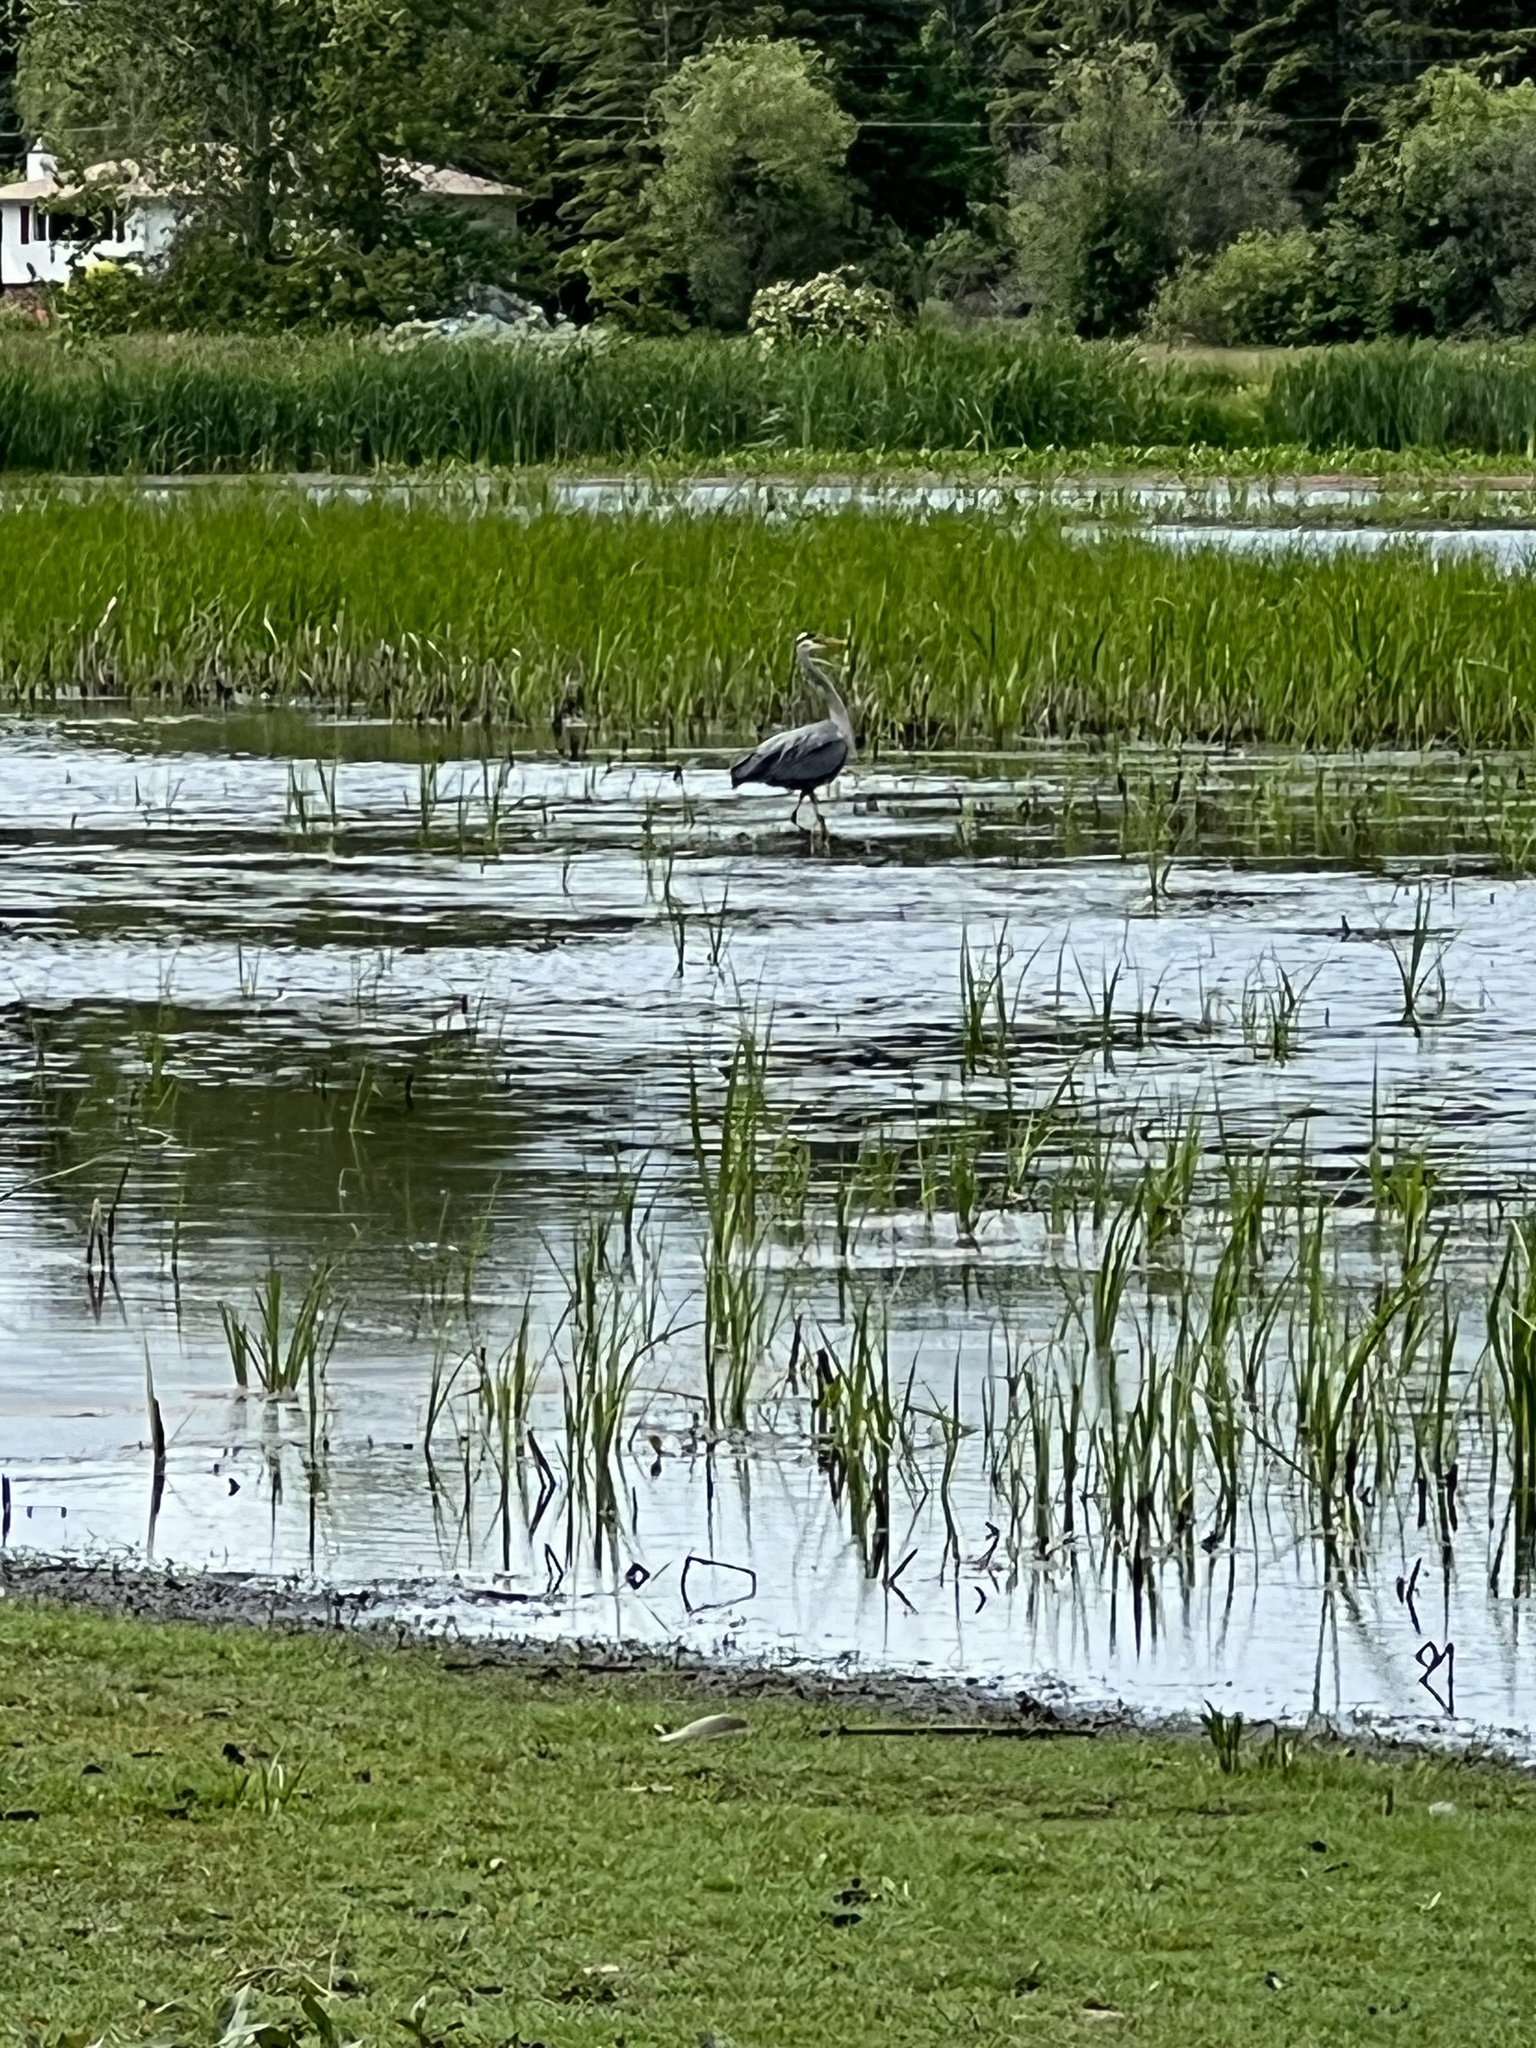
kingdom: Animalia
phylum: Chordata
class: Aves
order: Pelecaniformes
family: Ardeidae
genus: Ardea
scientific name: Ardea herodias
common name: Great blue heron
